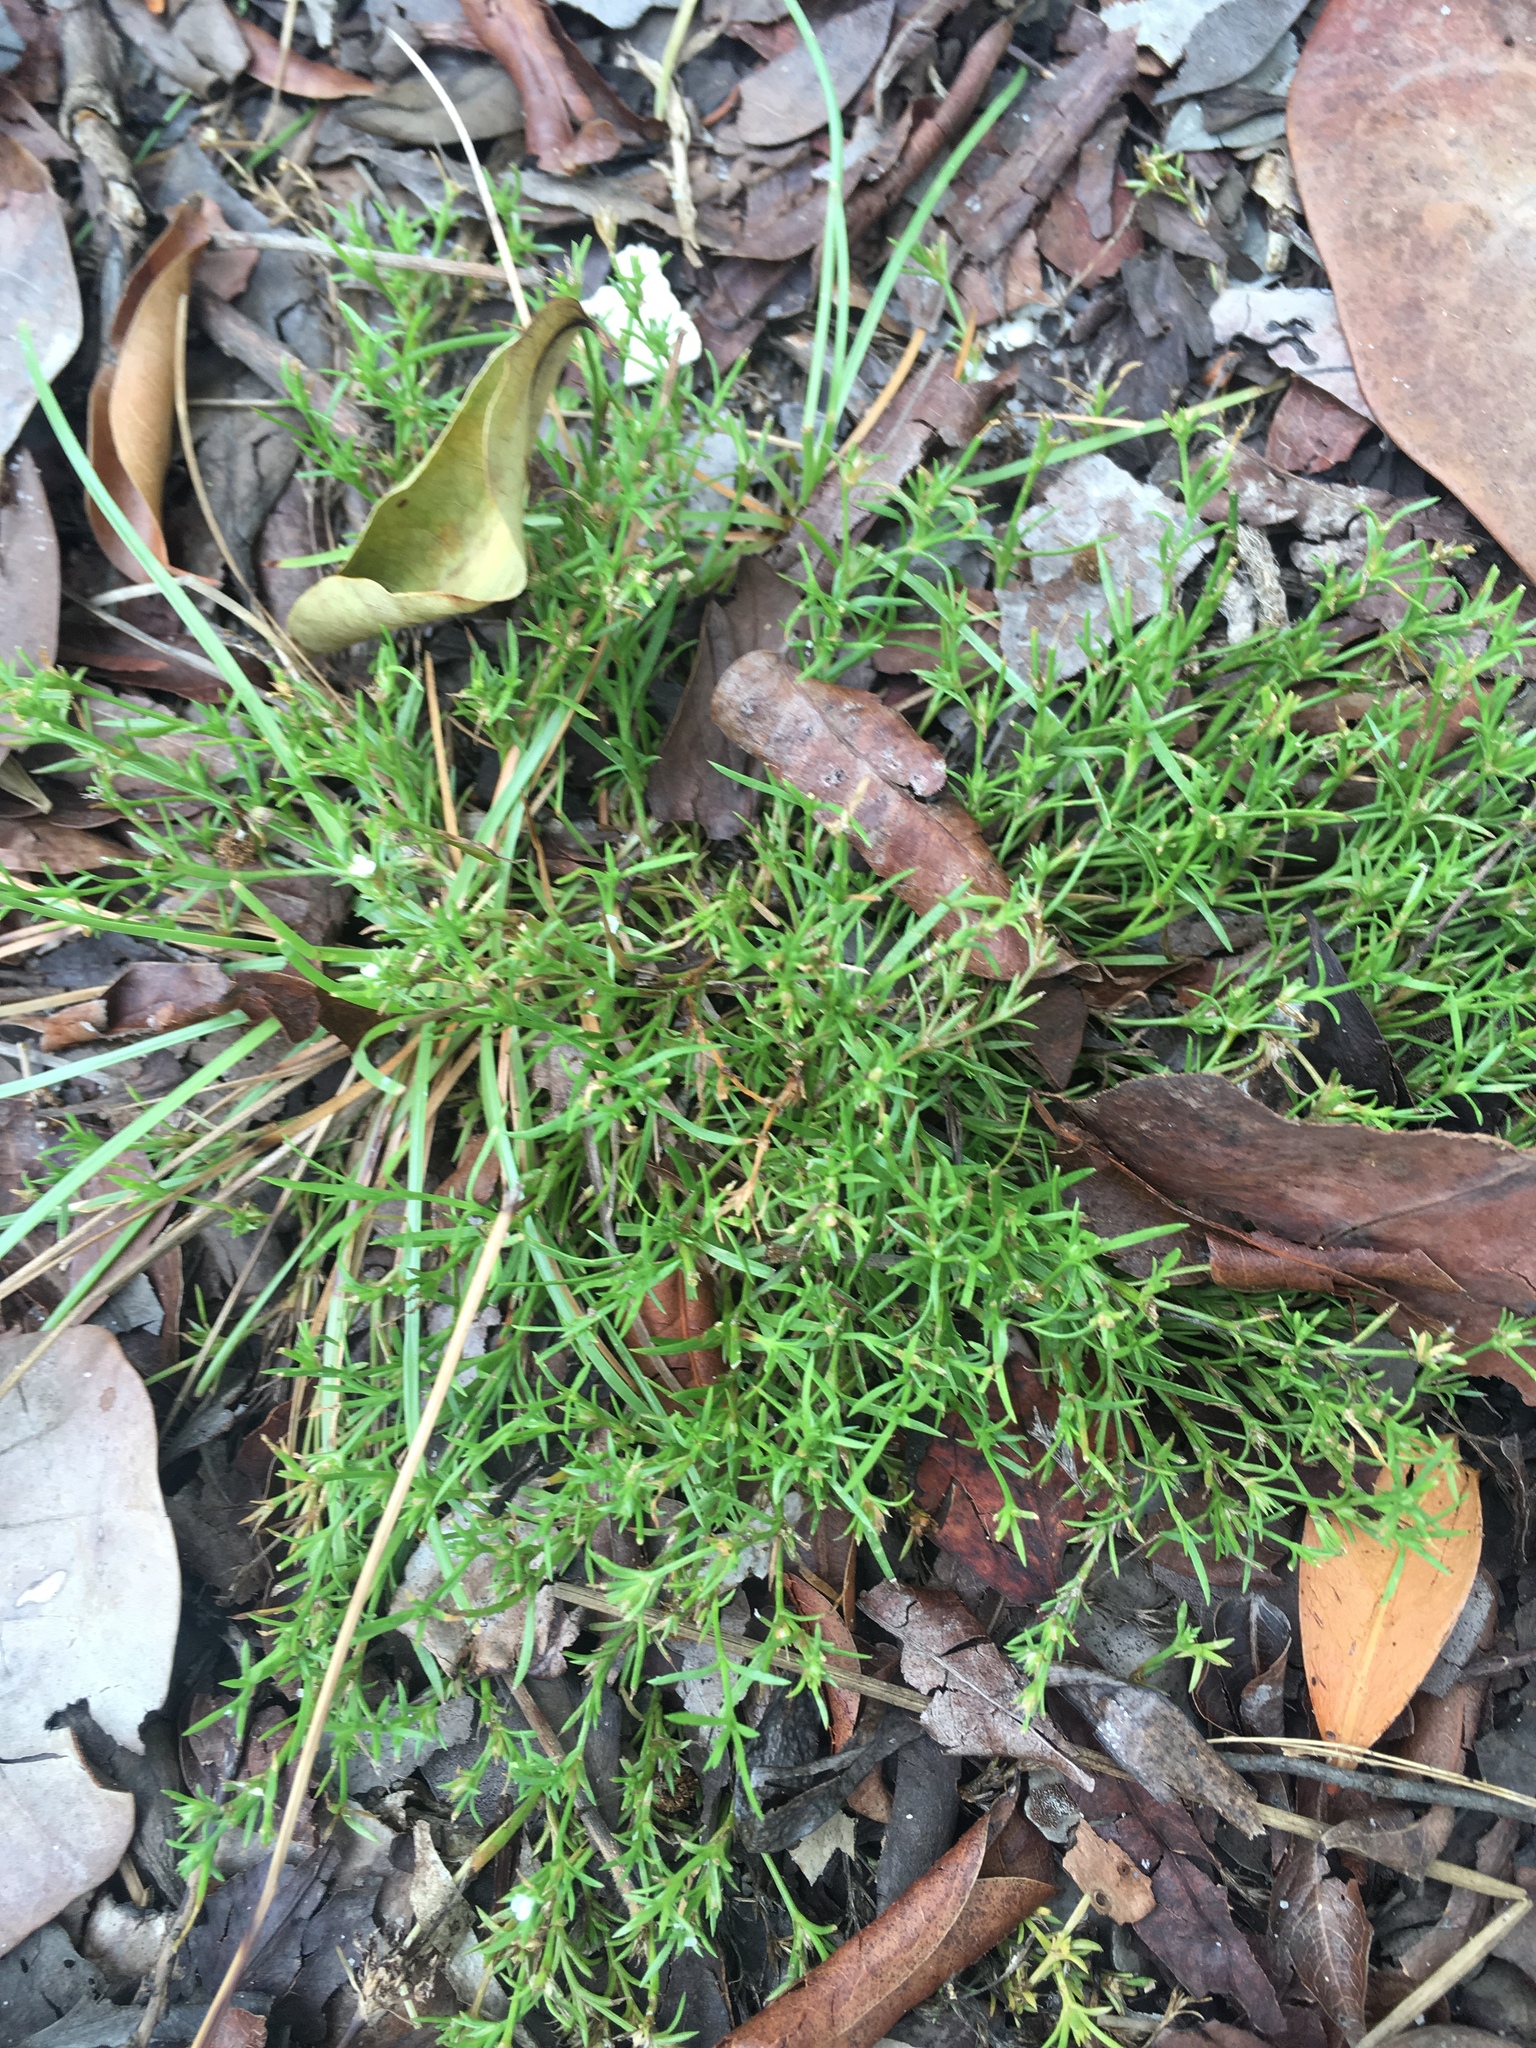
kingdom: Plantae
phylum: Tracheophyta
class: Magnoliopsida
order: Lamiales
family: Tetrachondraceae
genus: Polypremum
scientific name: Polypremum procumbens
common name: Juniper-leaf
